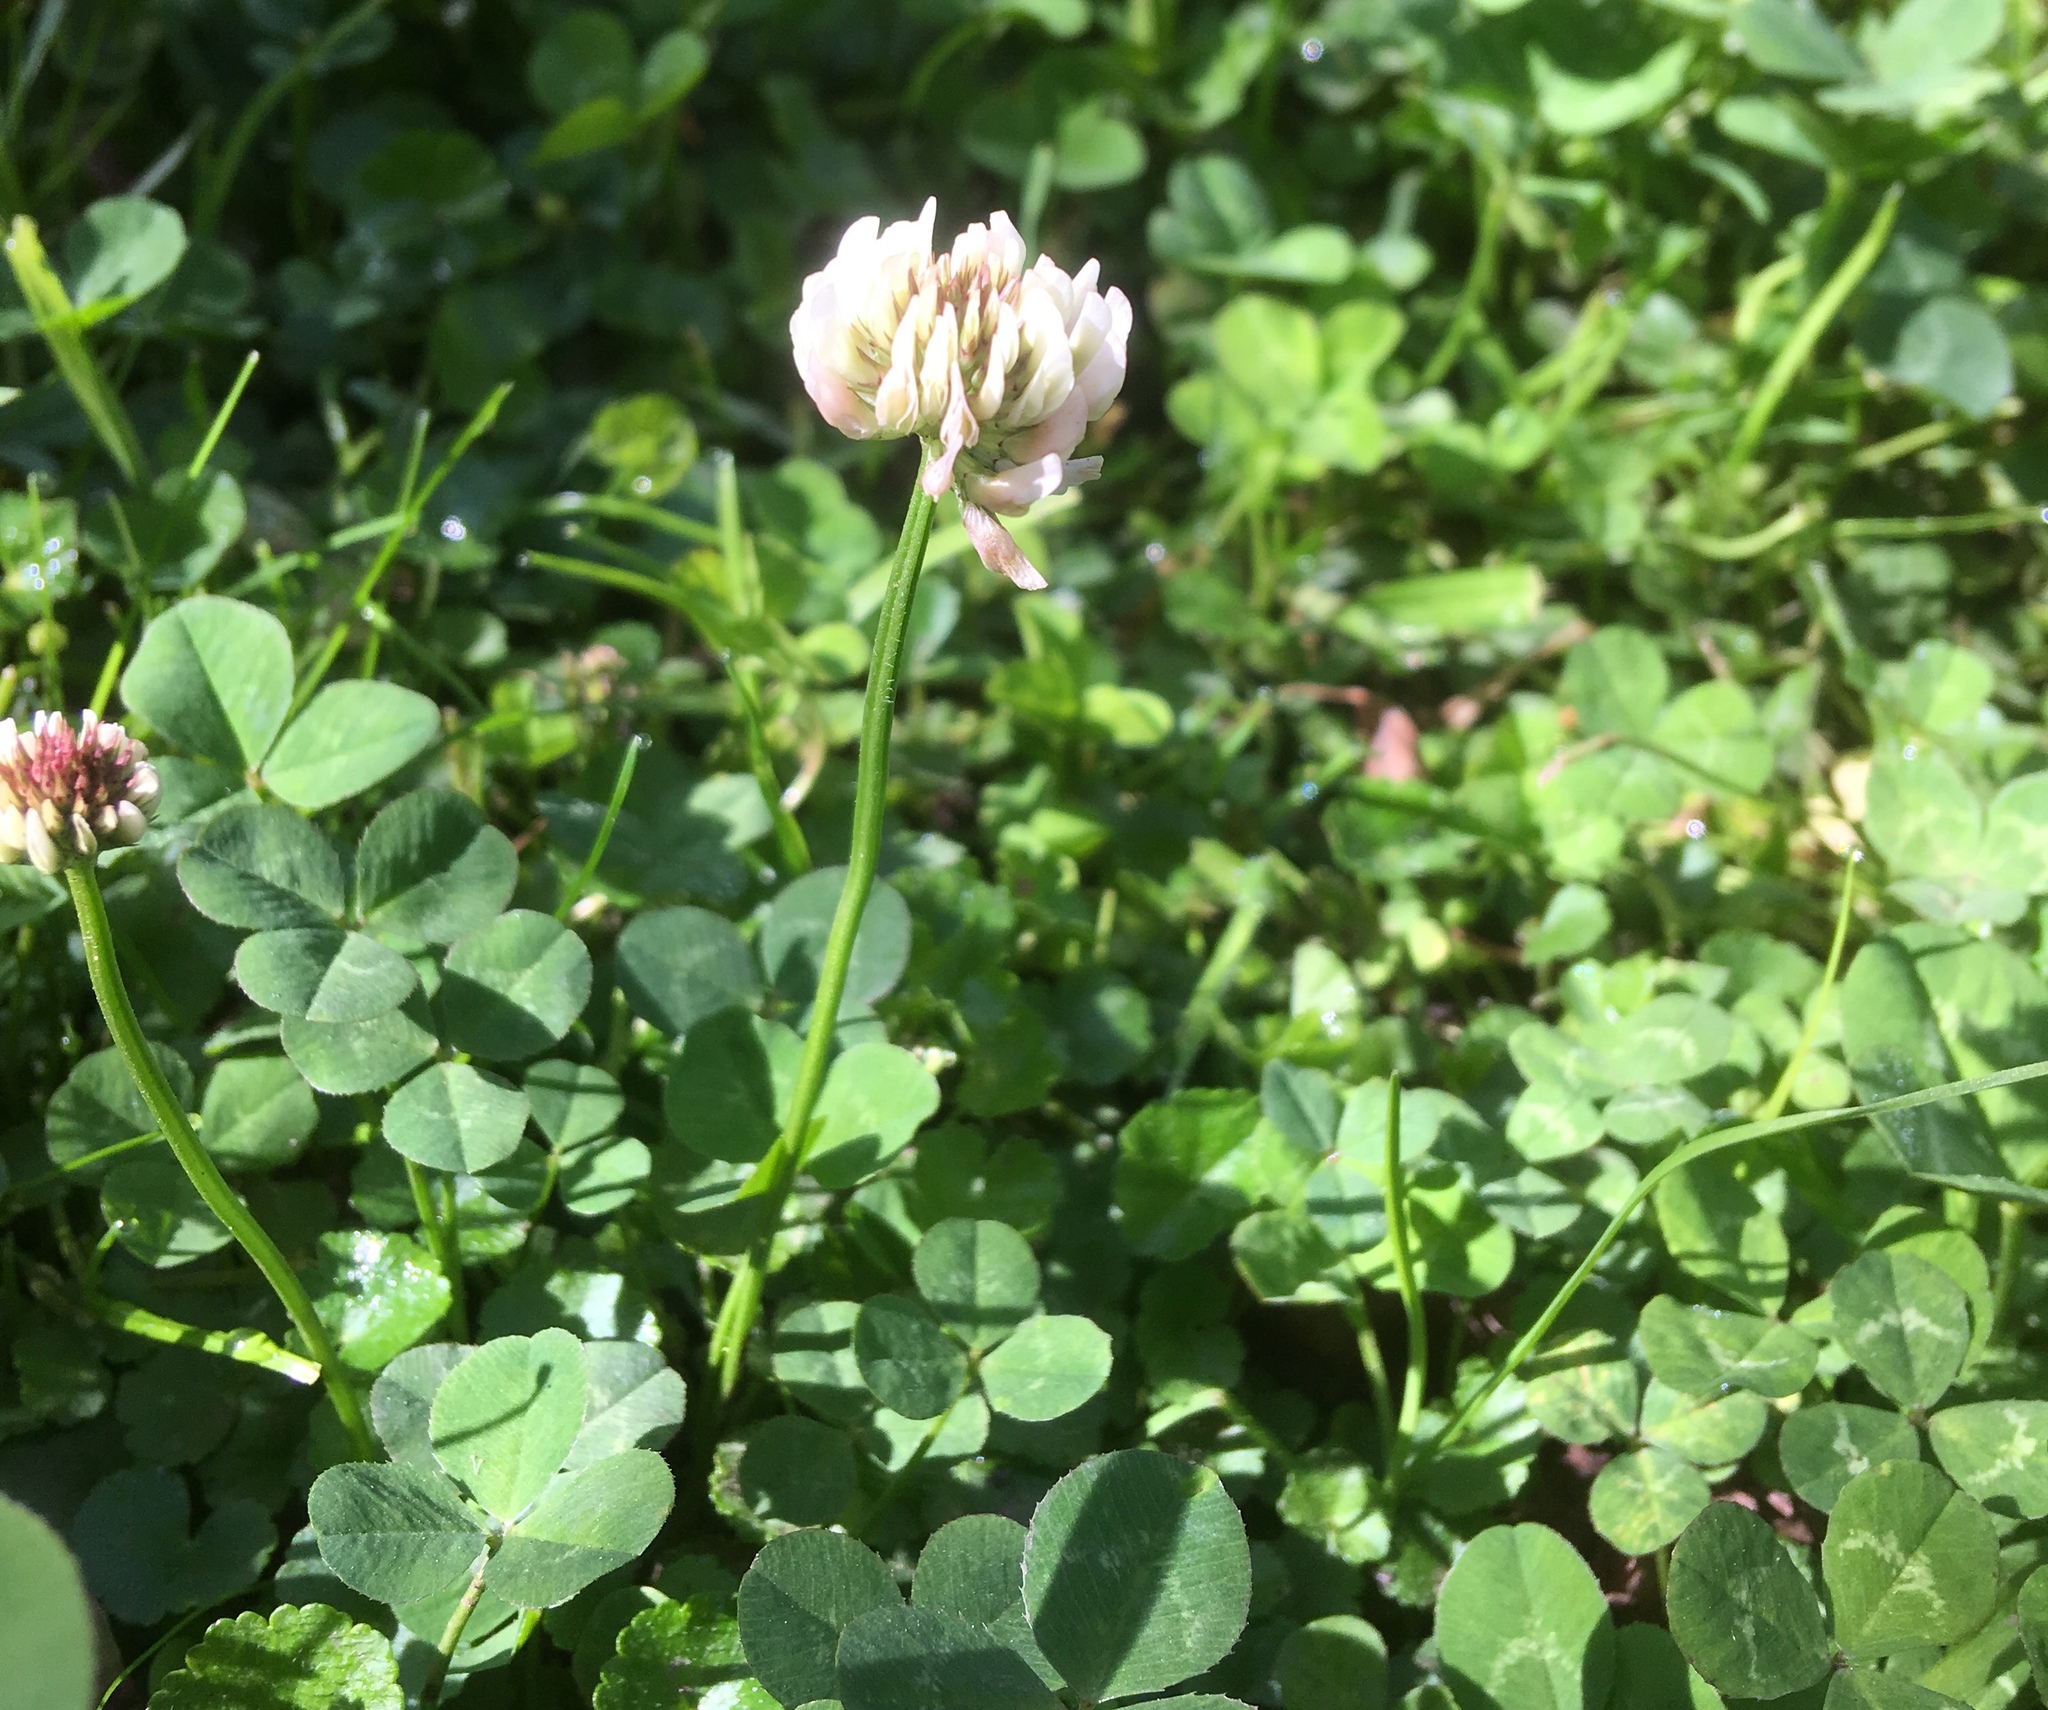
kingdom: Plantae
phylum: Tracheophyta
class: Magnoliopsida
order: Fabales
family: Fabaceae
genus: Trifolium
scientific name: Trifolium repens
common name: White clover
